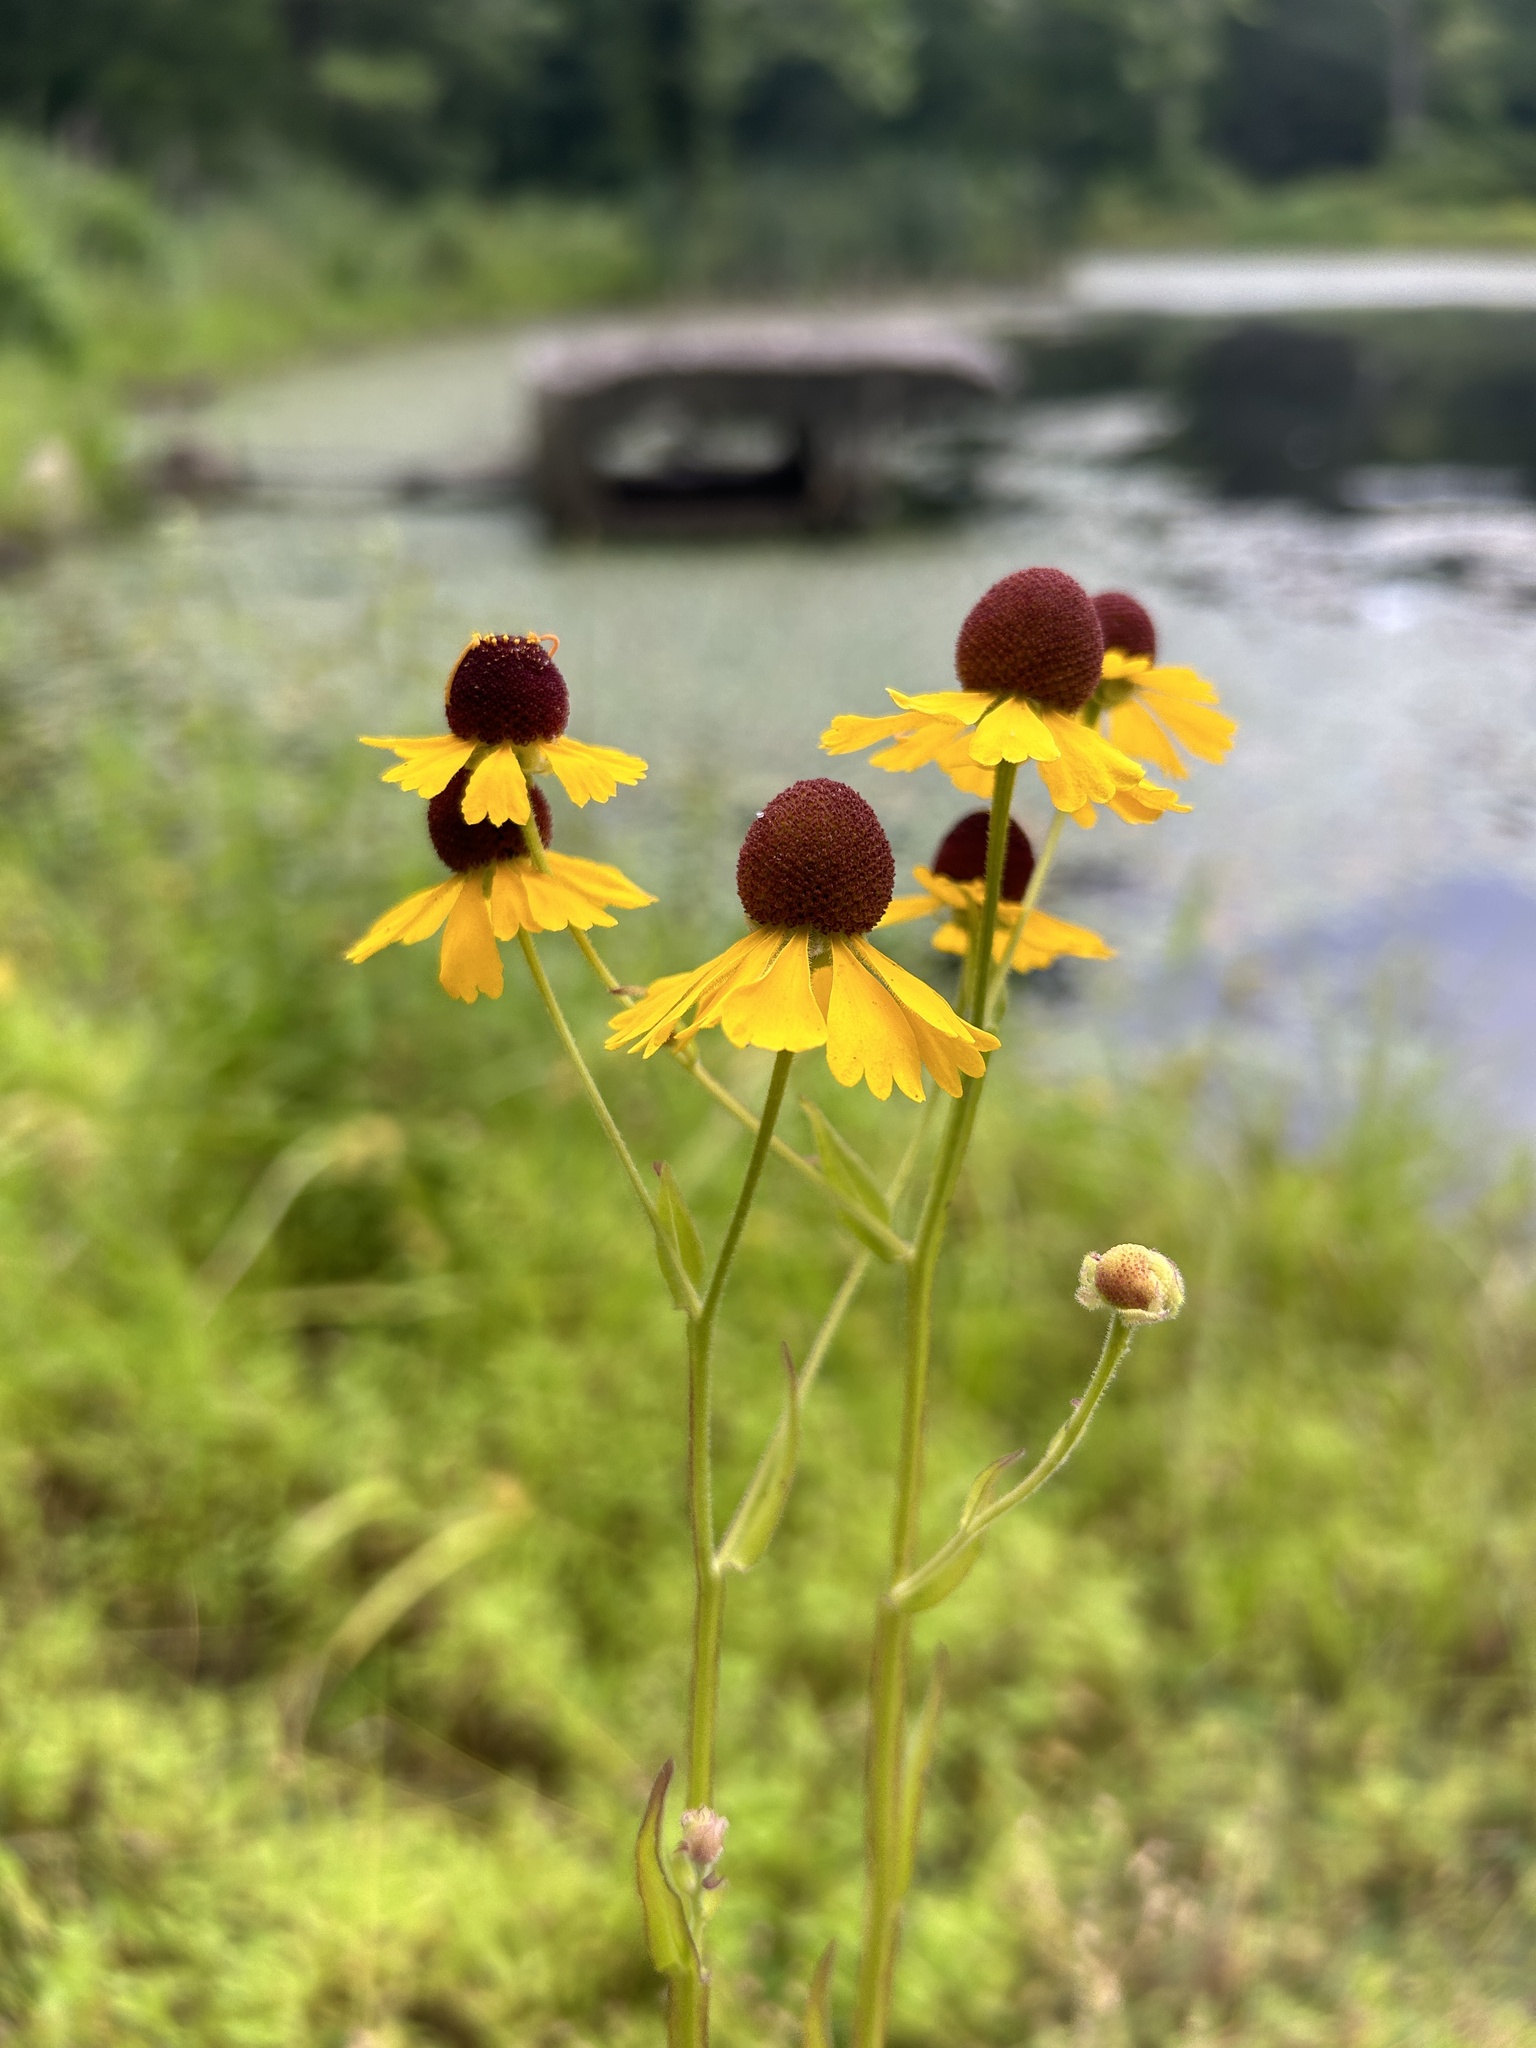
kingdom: Plantae
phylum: Tracheophyta
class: Magnoliopsida
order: Asterales
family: Asteraceae
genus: Helenium
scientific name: Helenium flexuosum
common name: Naked-flowered sneezeweed
